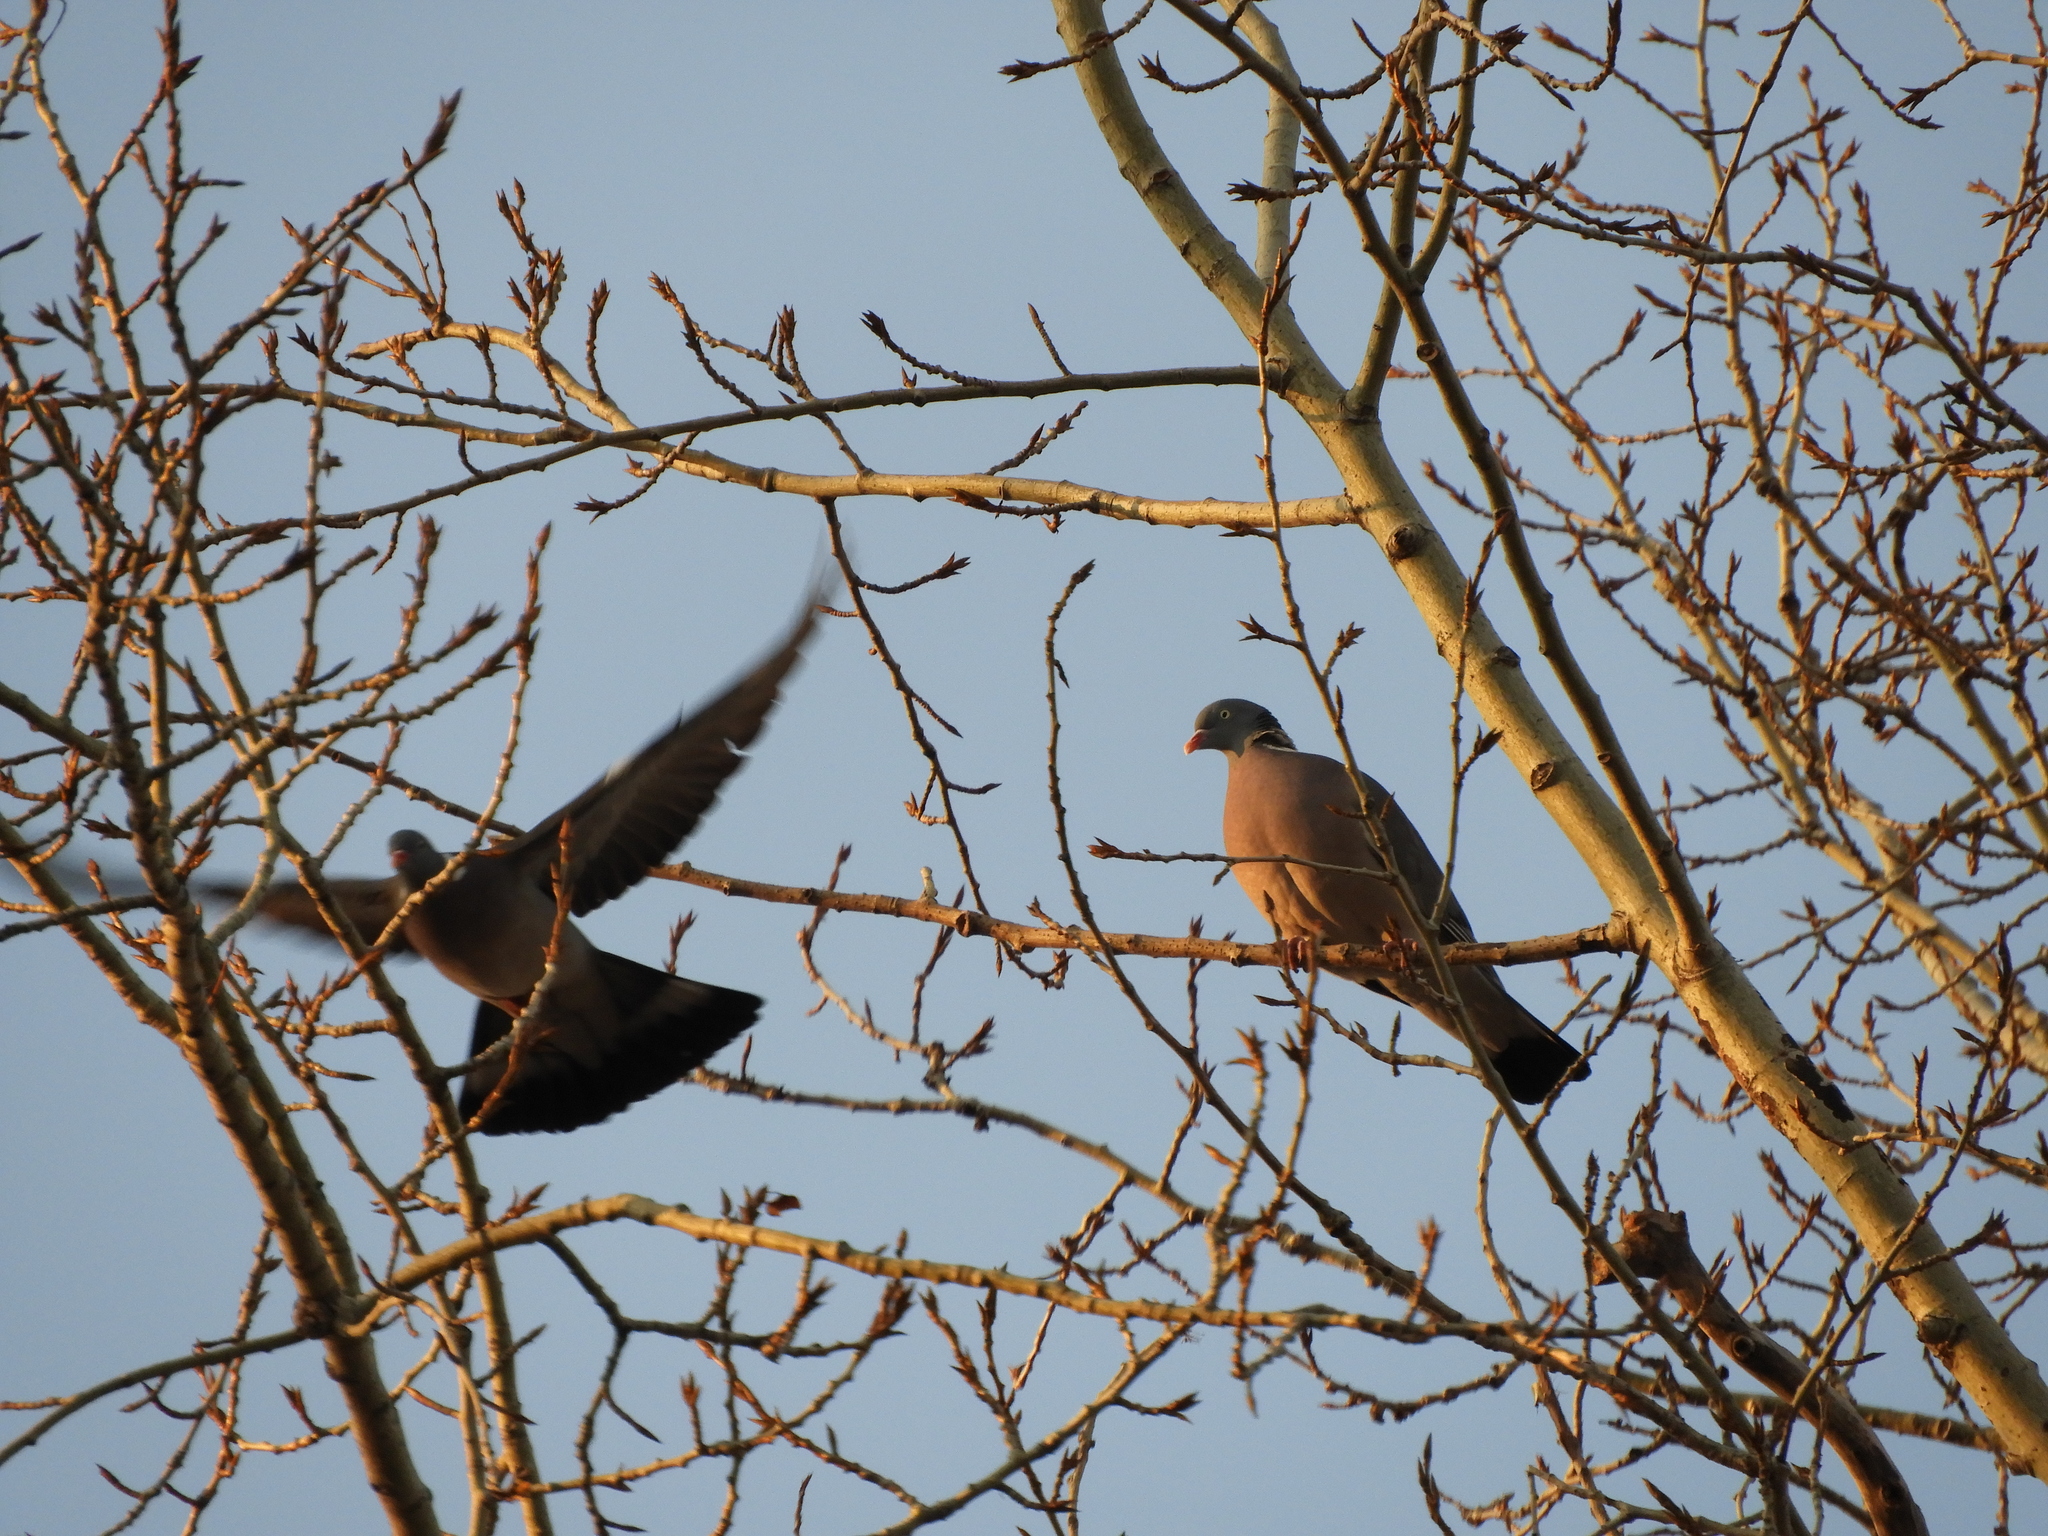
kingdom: Animalia
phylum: Chordata
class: Aves
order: Columbiformes
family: Columbidae
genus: Columba
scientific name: Columba palumbus
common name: Common wood pigeon
